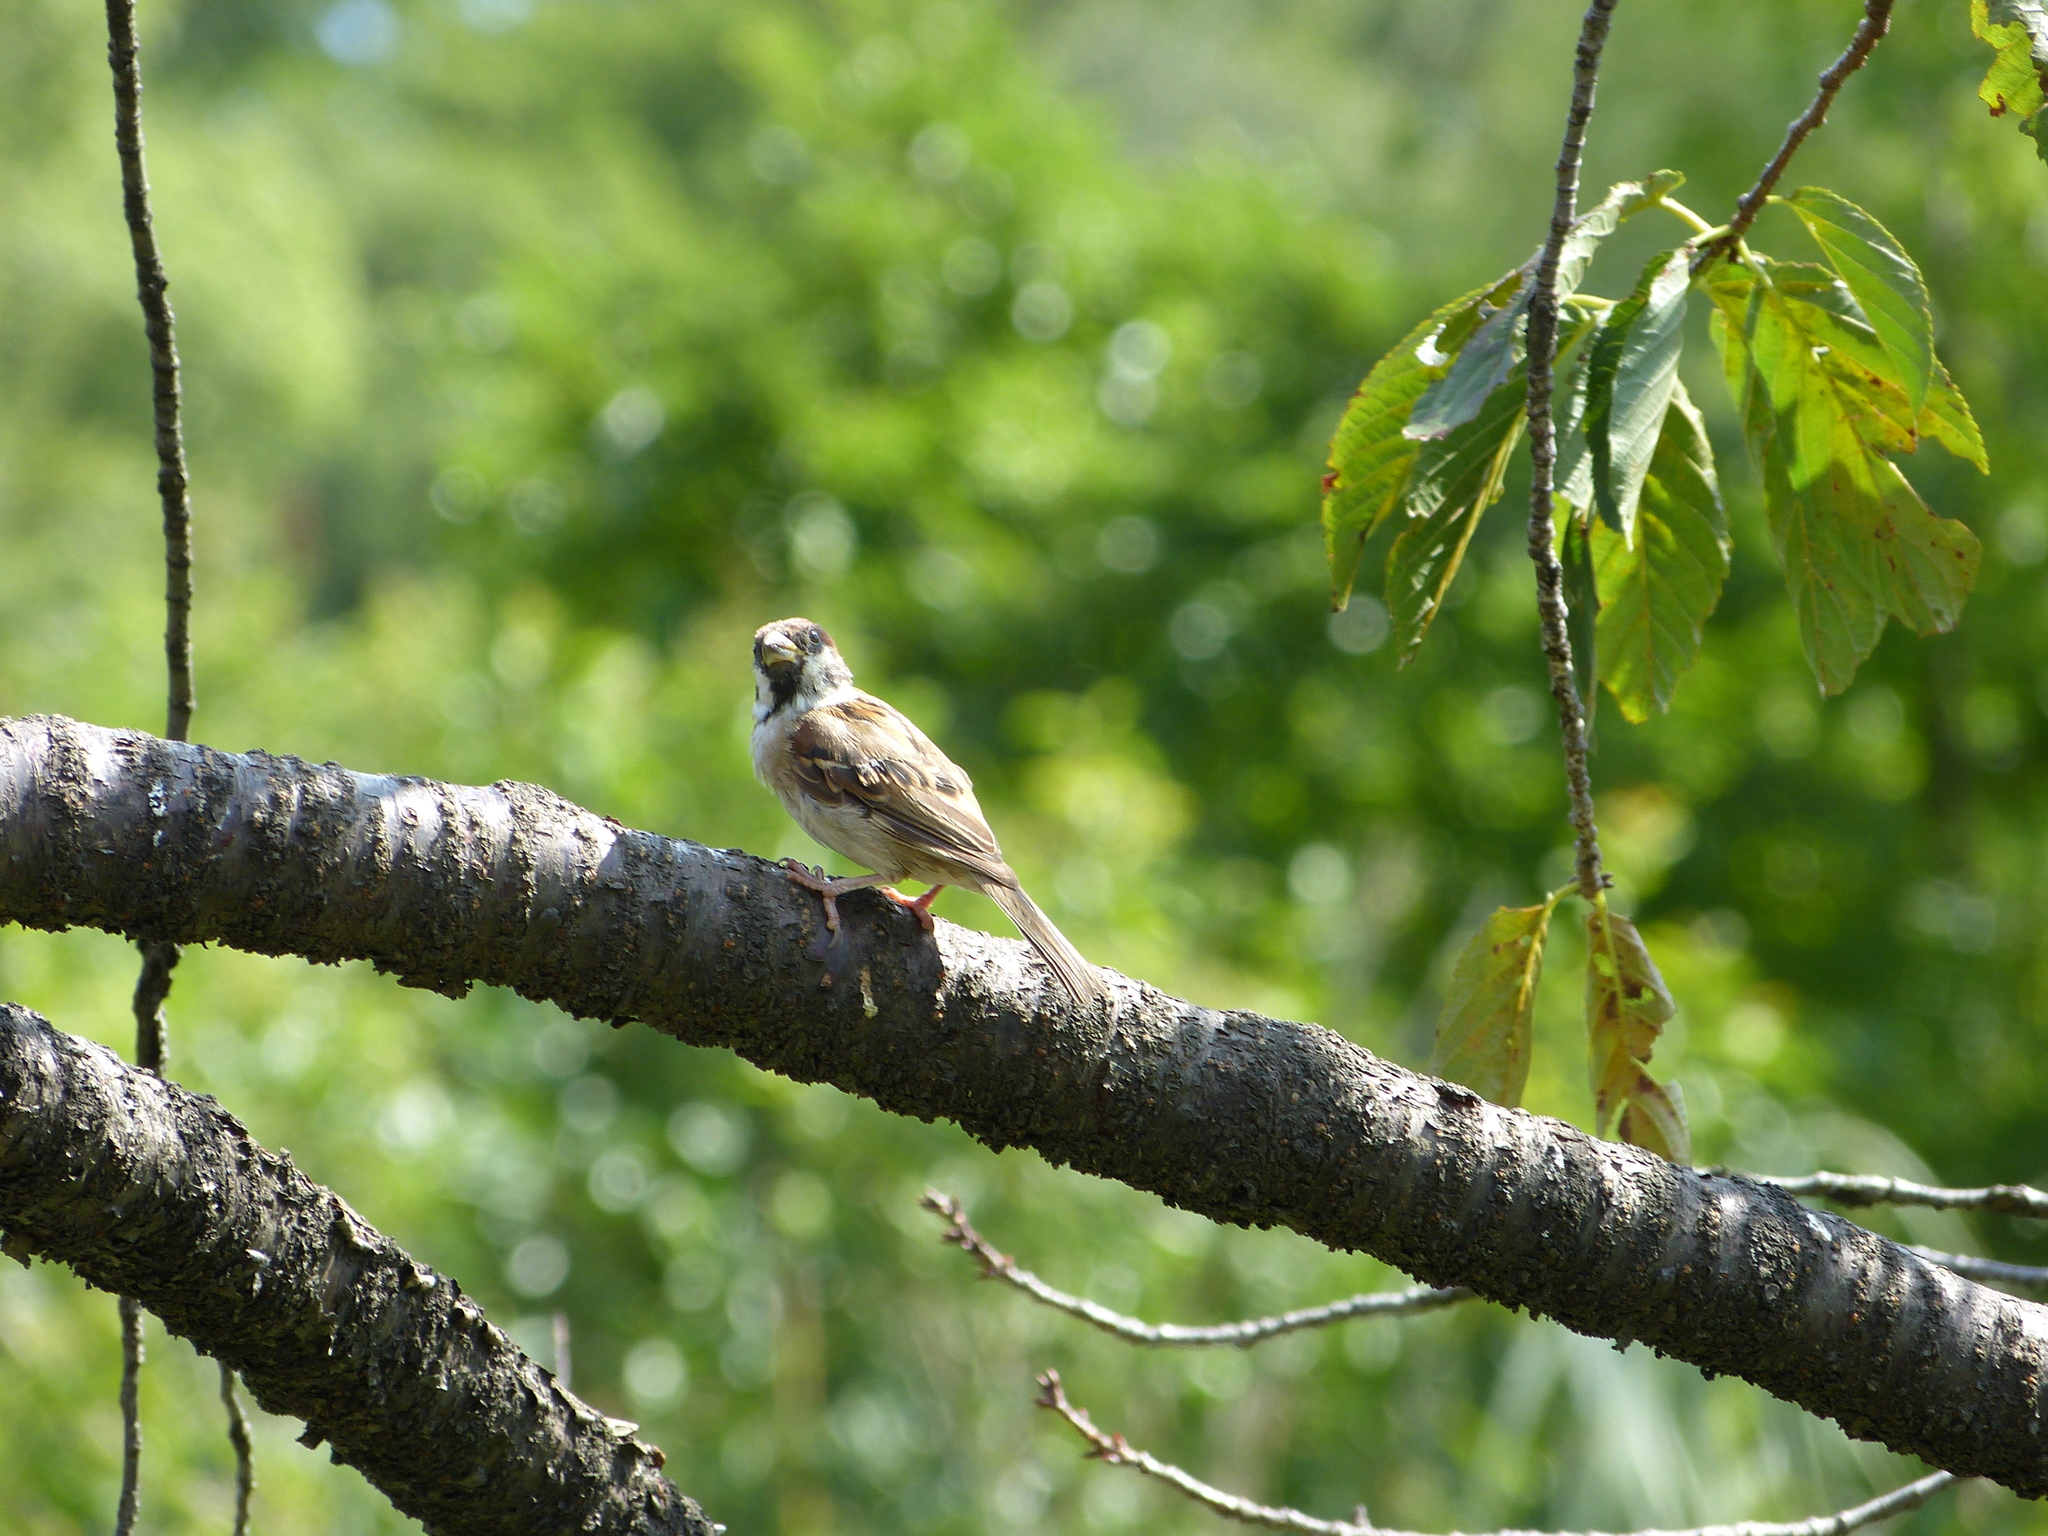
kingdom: Animalia
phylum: Chordata
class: Aves
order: Passeriformes
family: Passeridae
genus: Passer
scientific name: Passer montanus
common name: Eurasian tree sparrow
